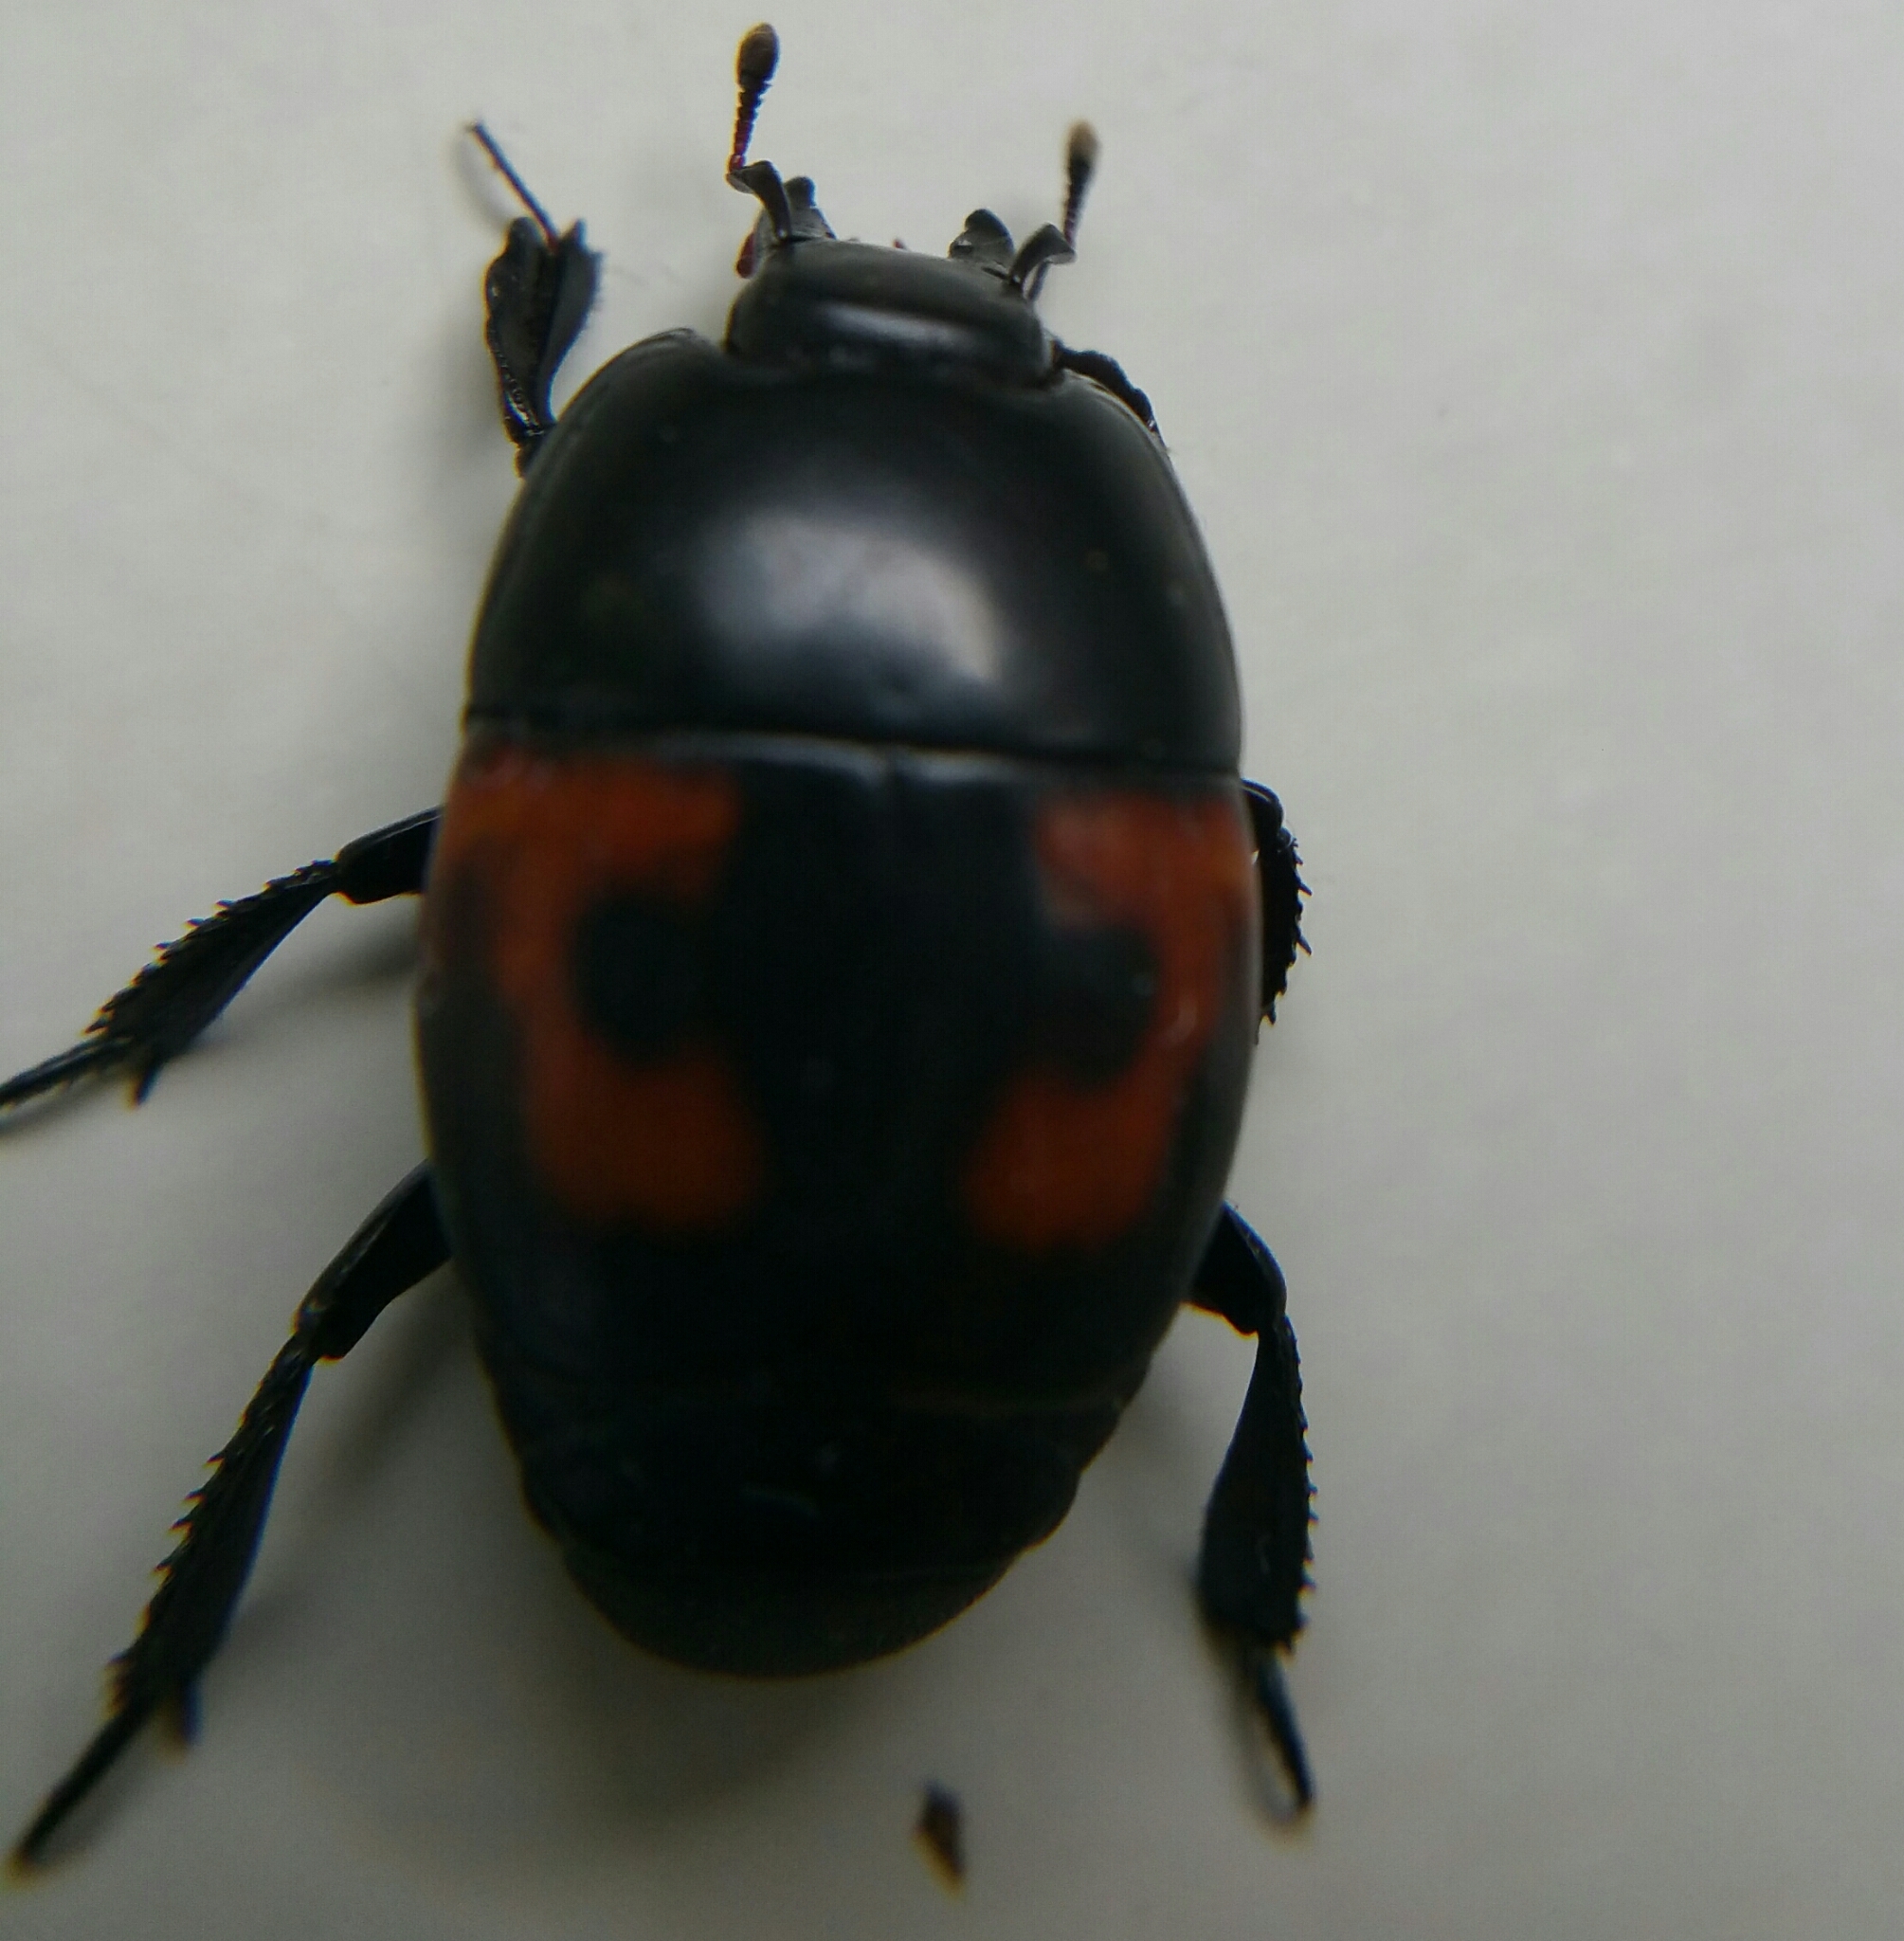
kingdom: Animalia
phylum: Arthropoda
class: Insecta
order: Coleoptera
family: Histeridae
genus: Hister
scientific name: Hister quadrimaculatus
